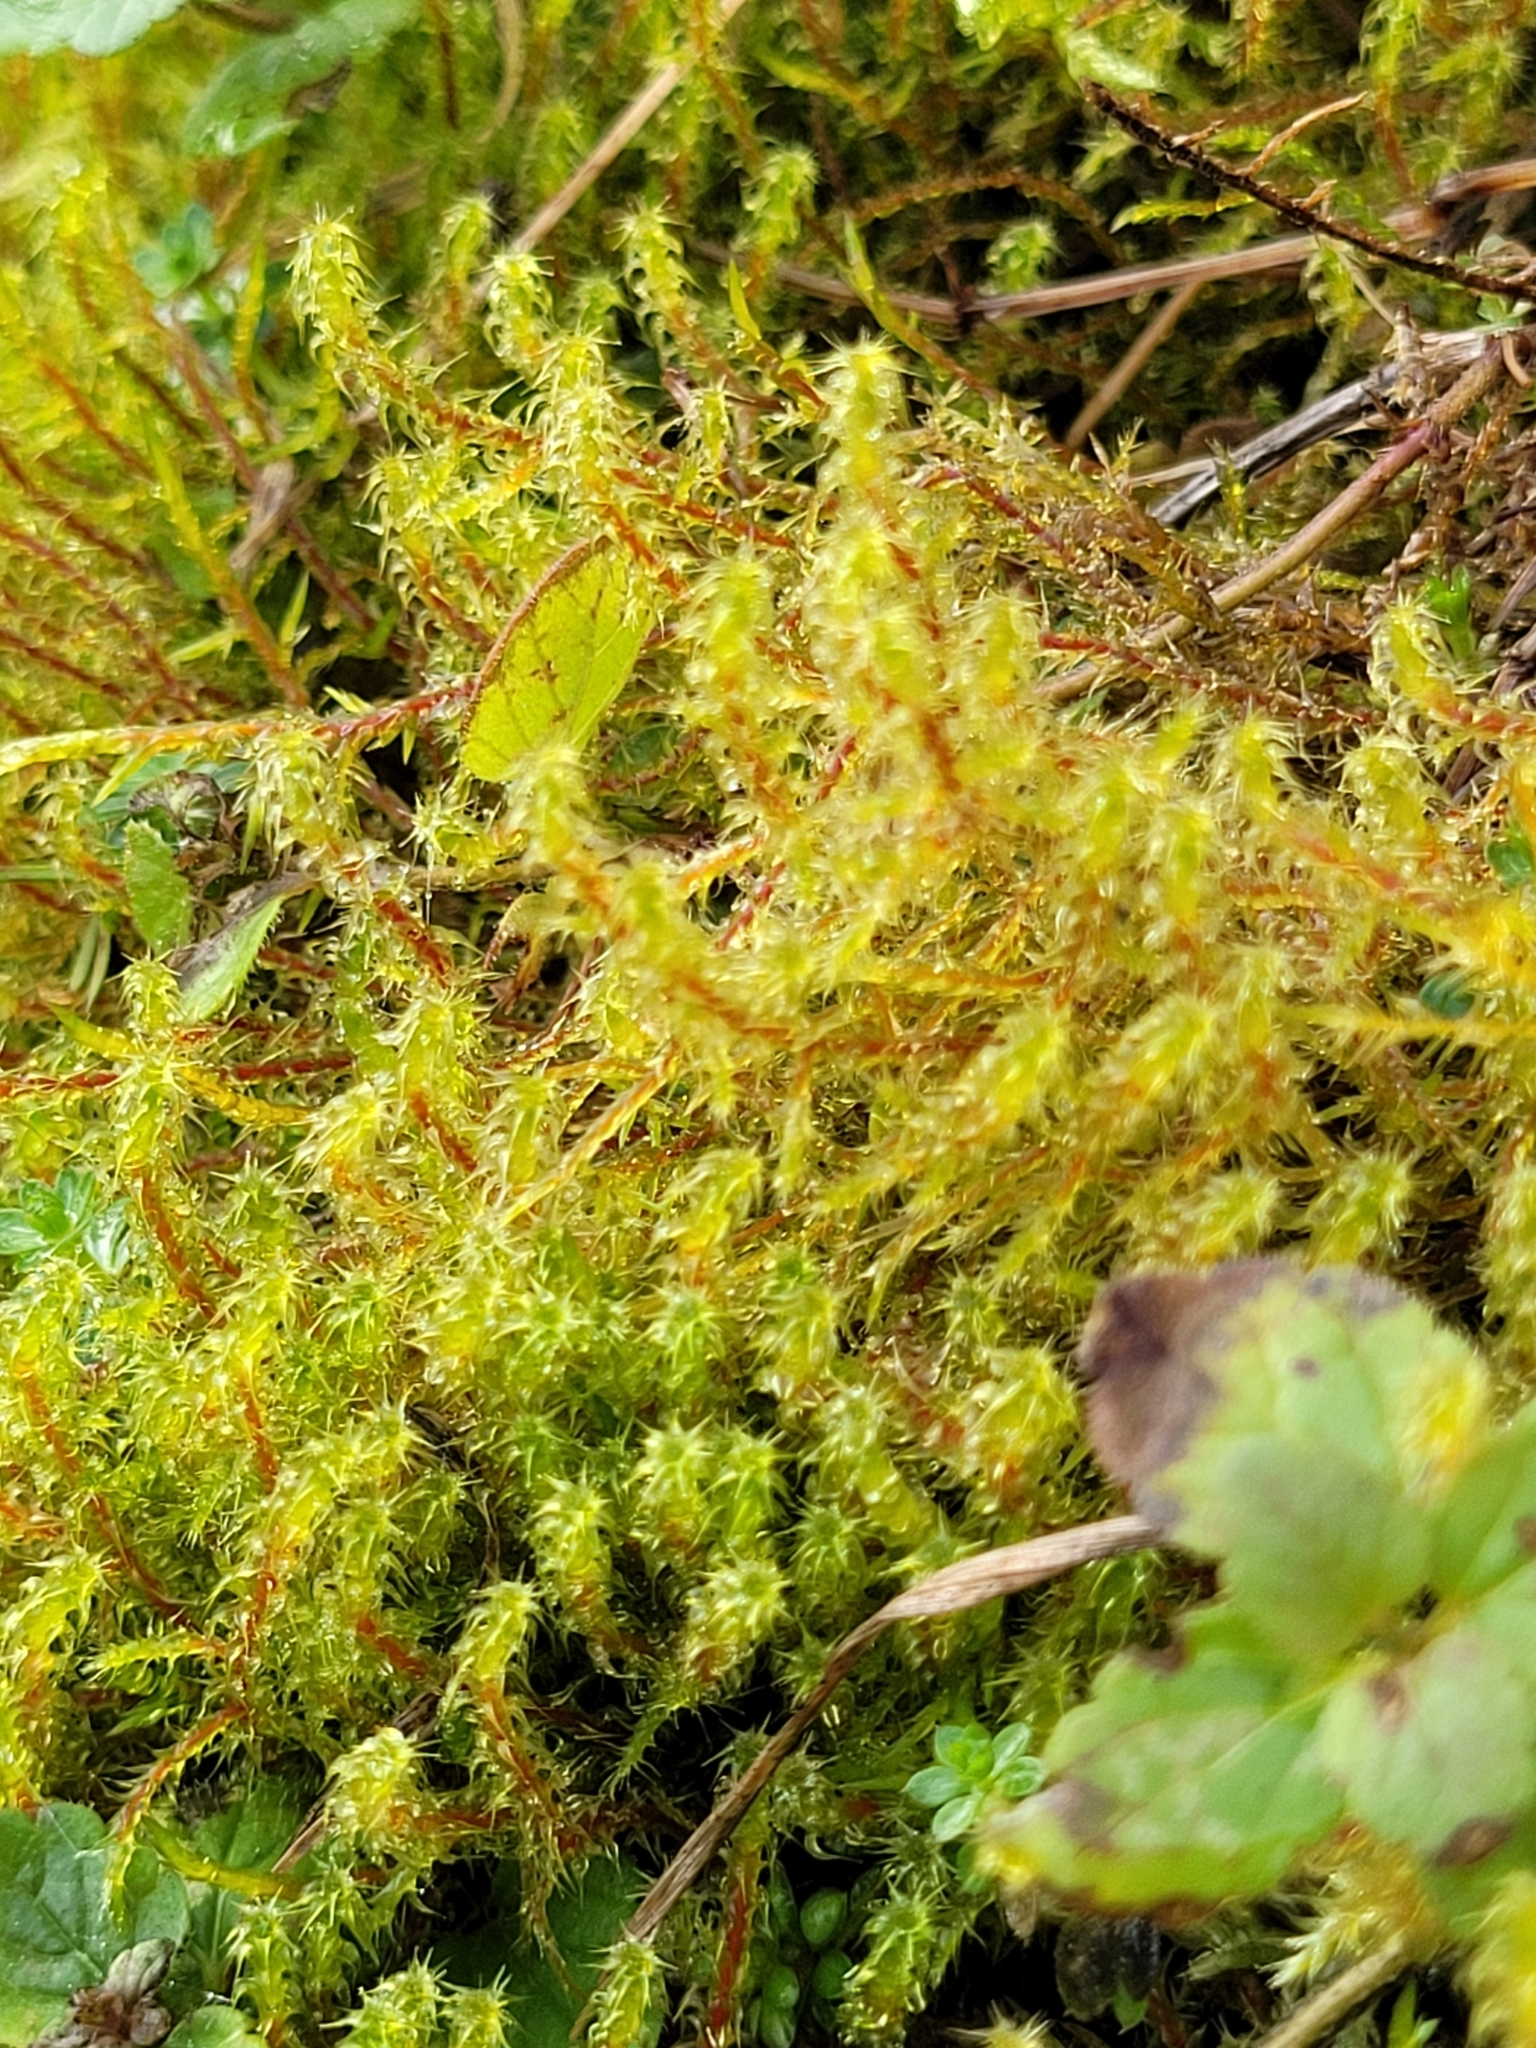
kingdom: Plantae
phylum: Bryophyta
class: Bryopsida
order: Hypnales
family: Hylocomiaceae
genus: Rhytidiadelphus
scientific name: Rhytidiadelphus squarrosus
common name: Springy turf-moss
